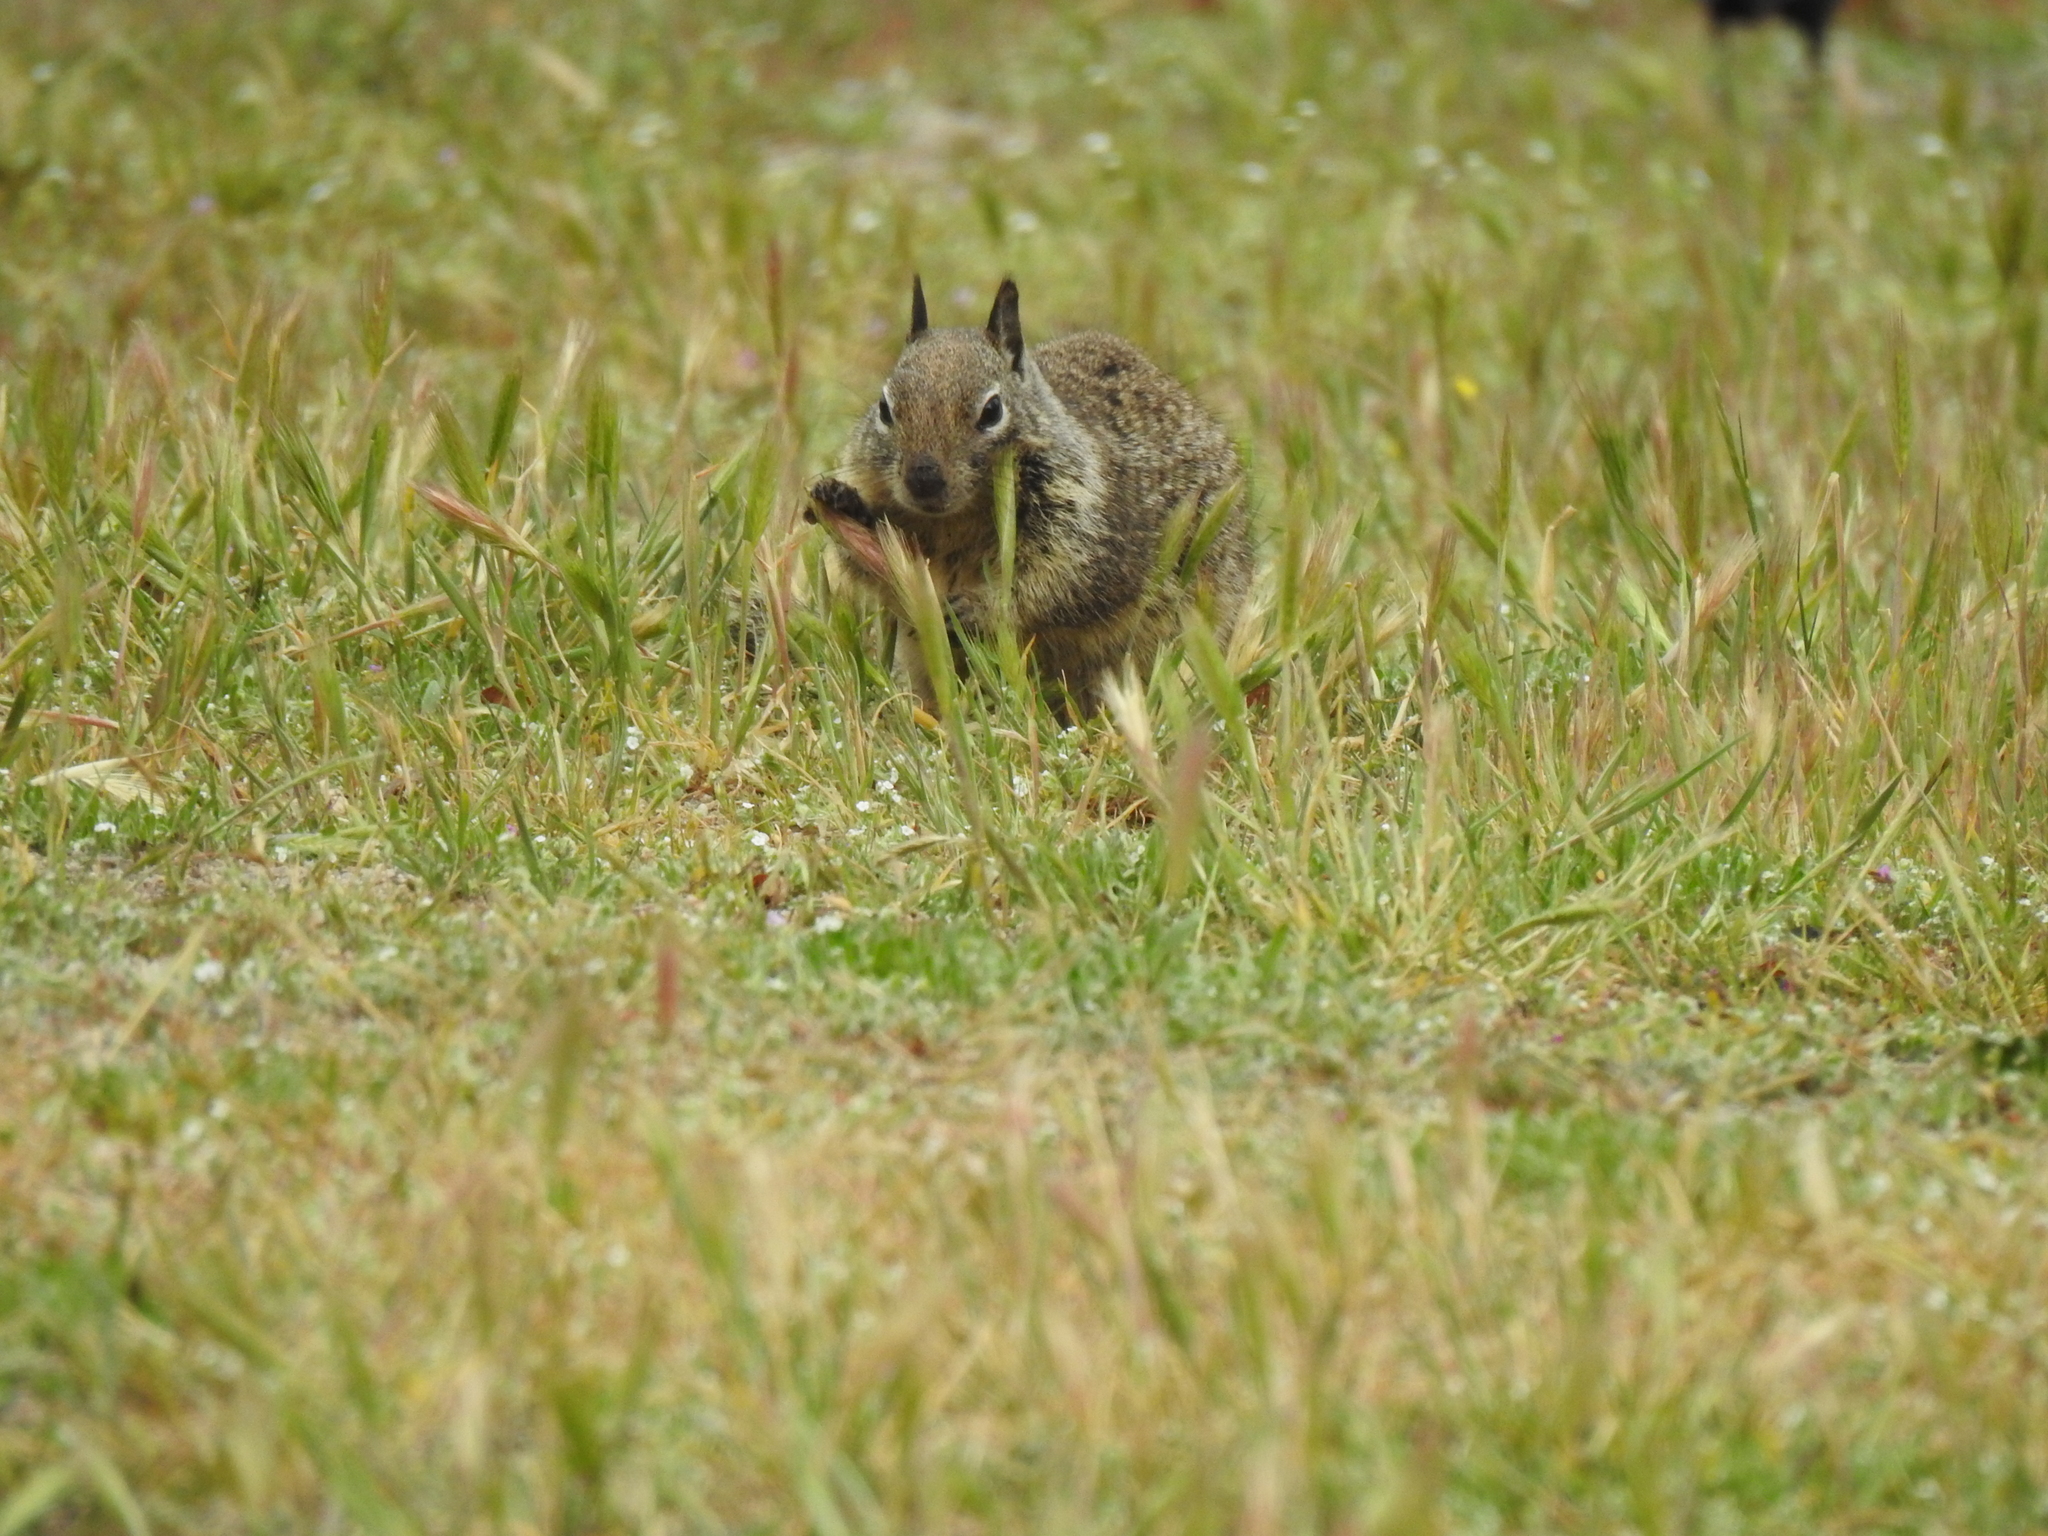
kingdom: Animalia
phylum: Chordata
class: Mammalia
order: Rodentia
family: Sciuridae
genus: Otospermophilus
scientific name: Otospermophilus beecheyi
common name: California ground squirrel
